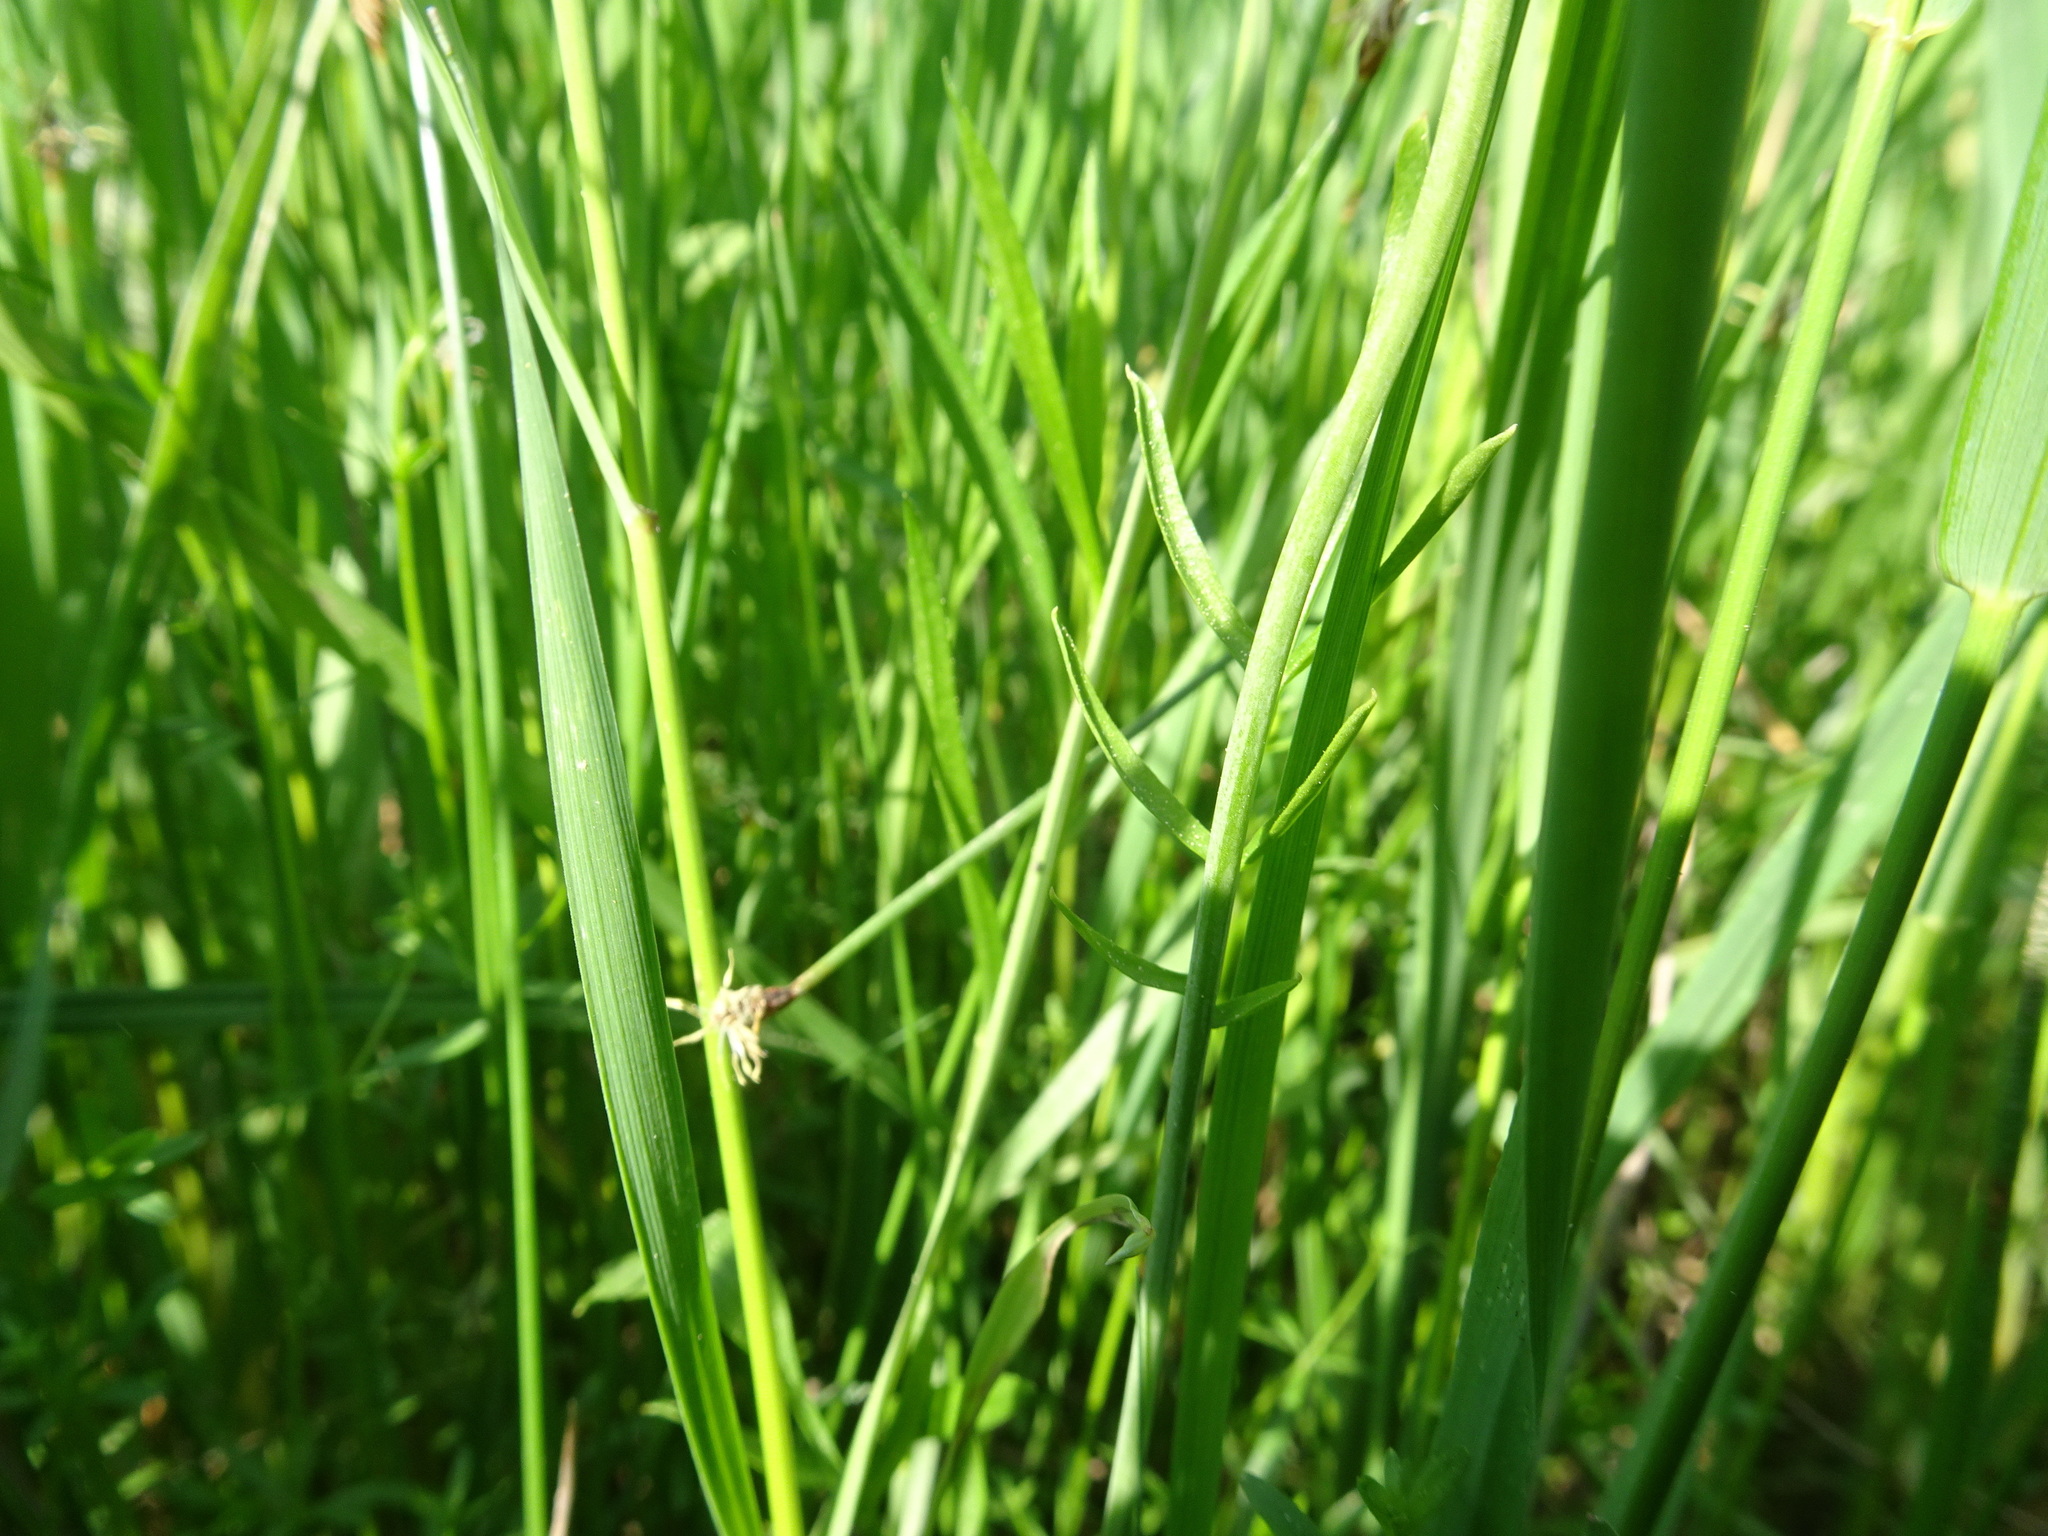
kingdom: Plantae
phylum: Tracheophyta
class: Magnoliopsida
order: Brassicales
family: Brassicaceae
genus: Cardamine
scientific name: Cardamine pratensis
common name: Cuckoo flower
